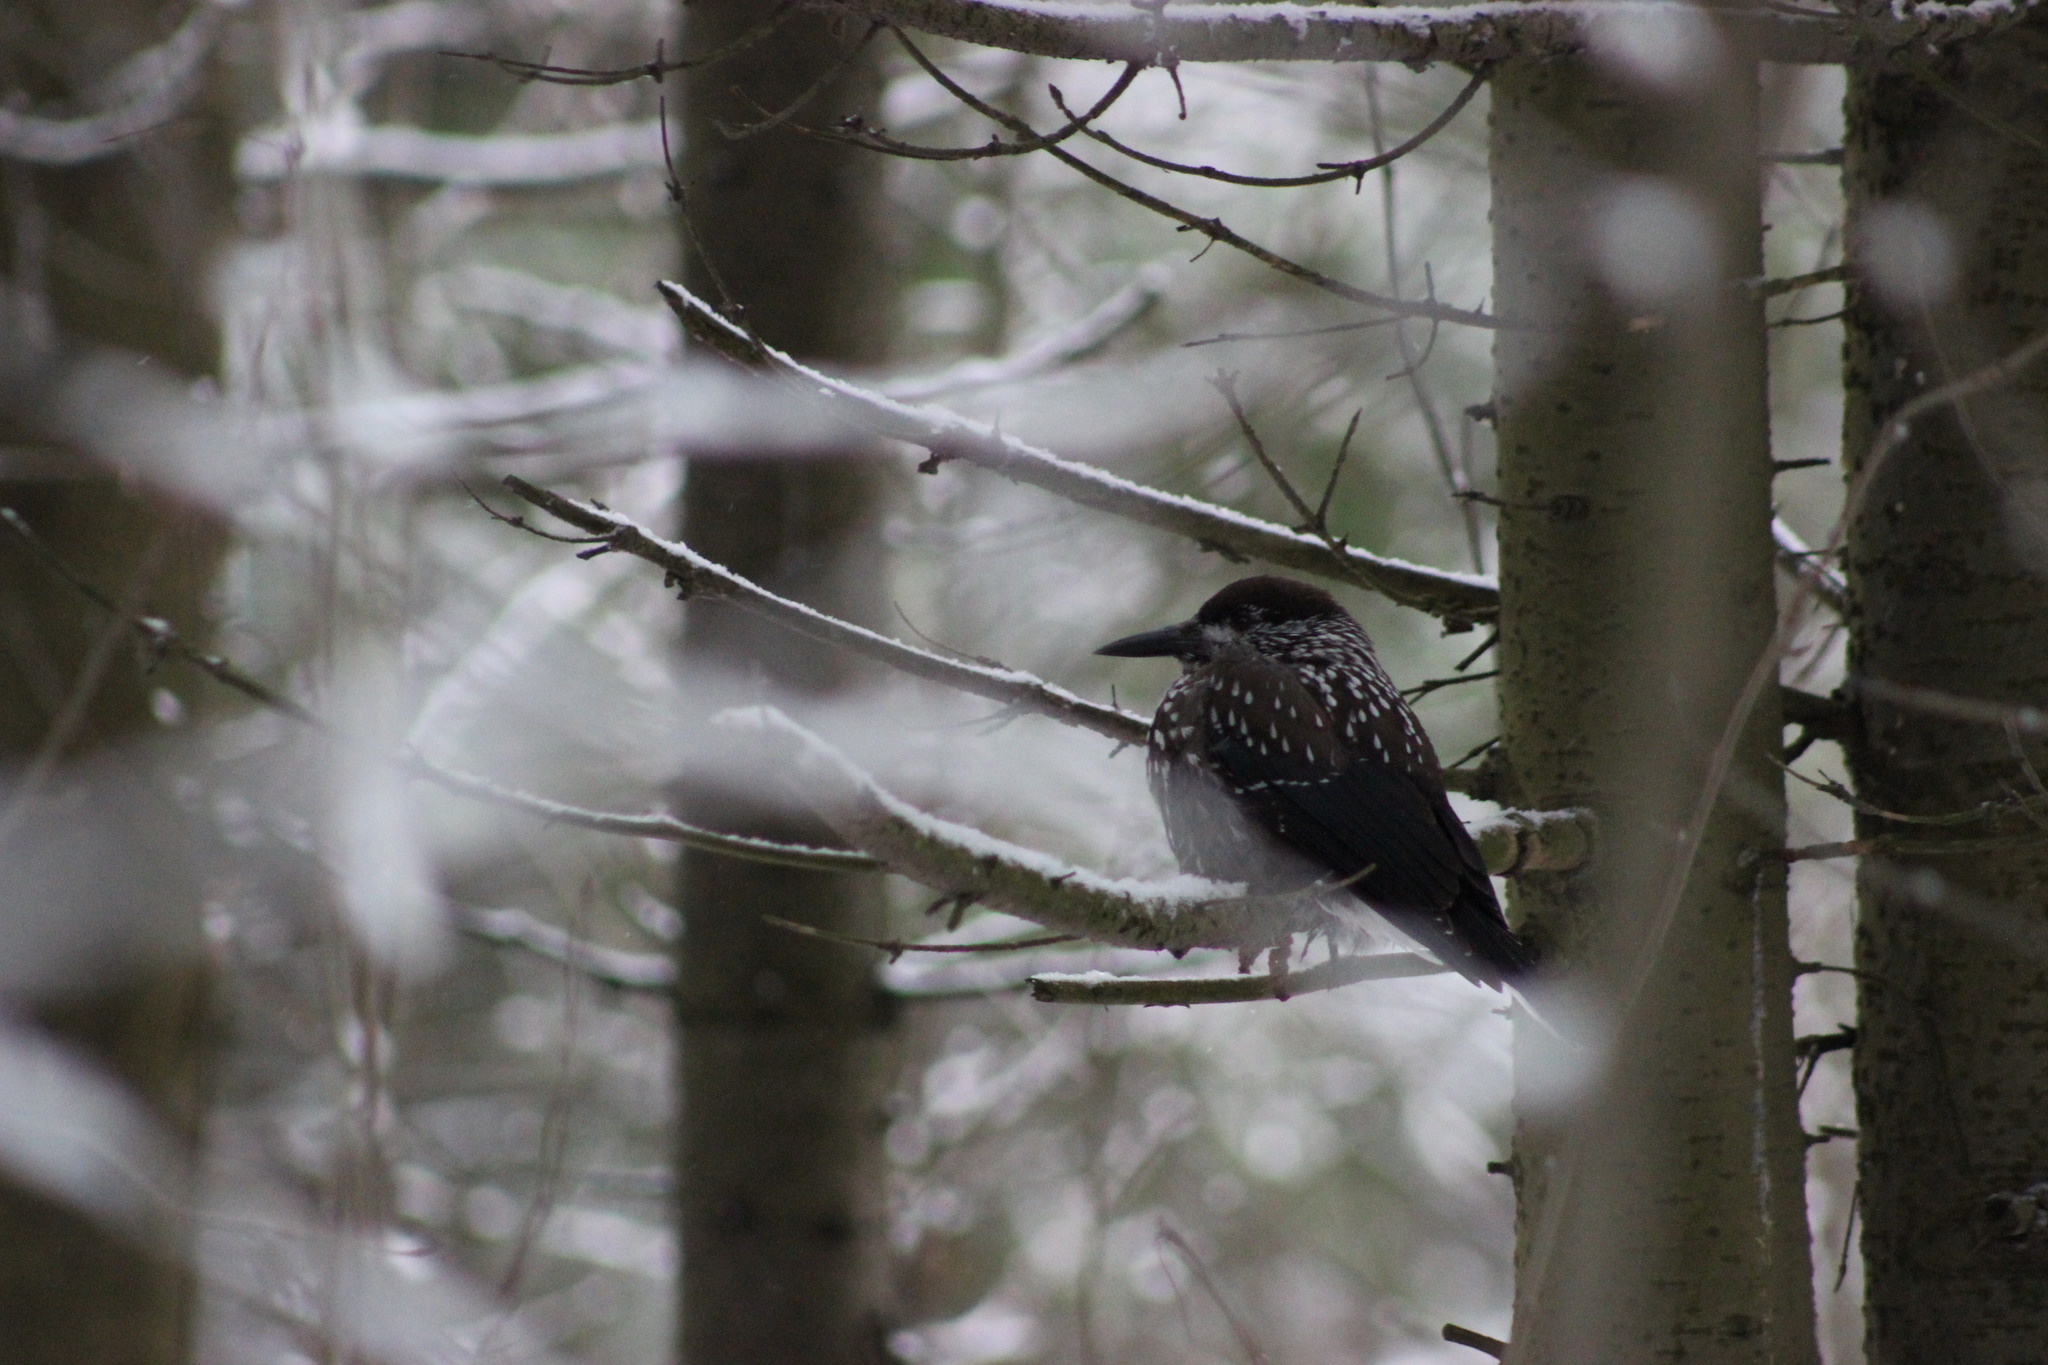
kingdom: Animalia
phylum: Chordata
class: Aves
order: Passeriformes
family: Corvidae
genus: Nucifraga
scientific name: Nucifraga caryocatactes
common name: Spotted nutcracker
